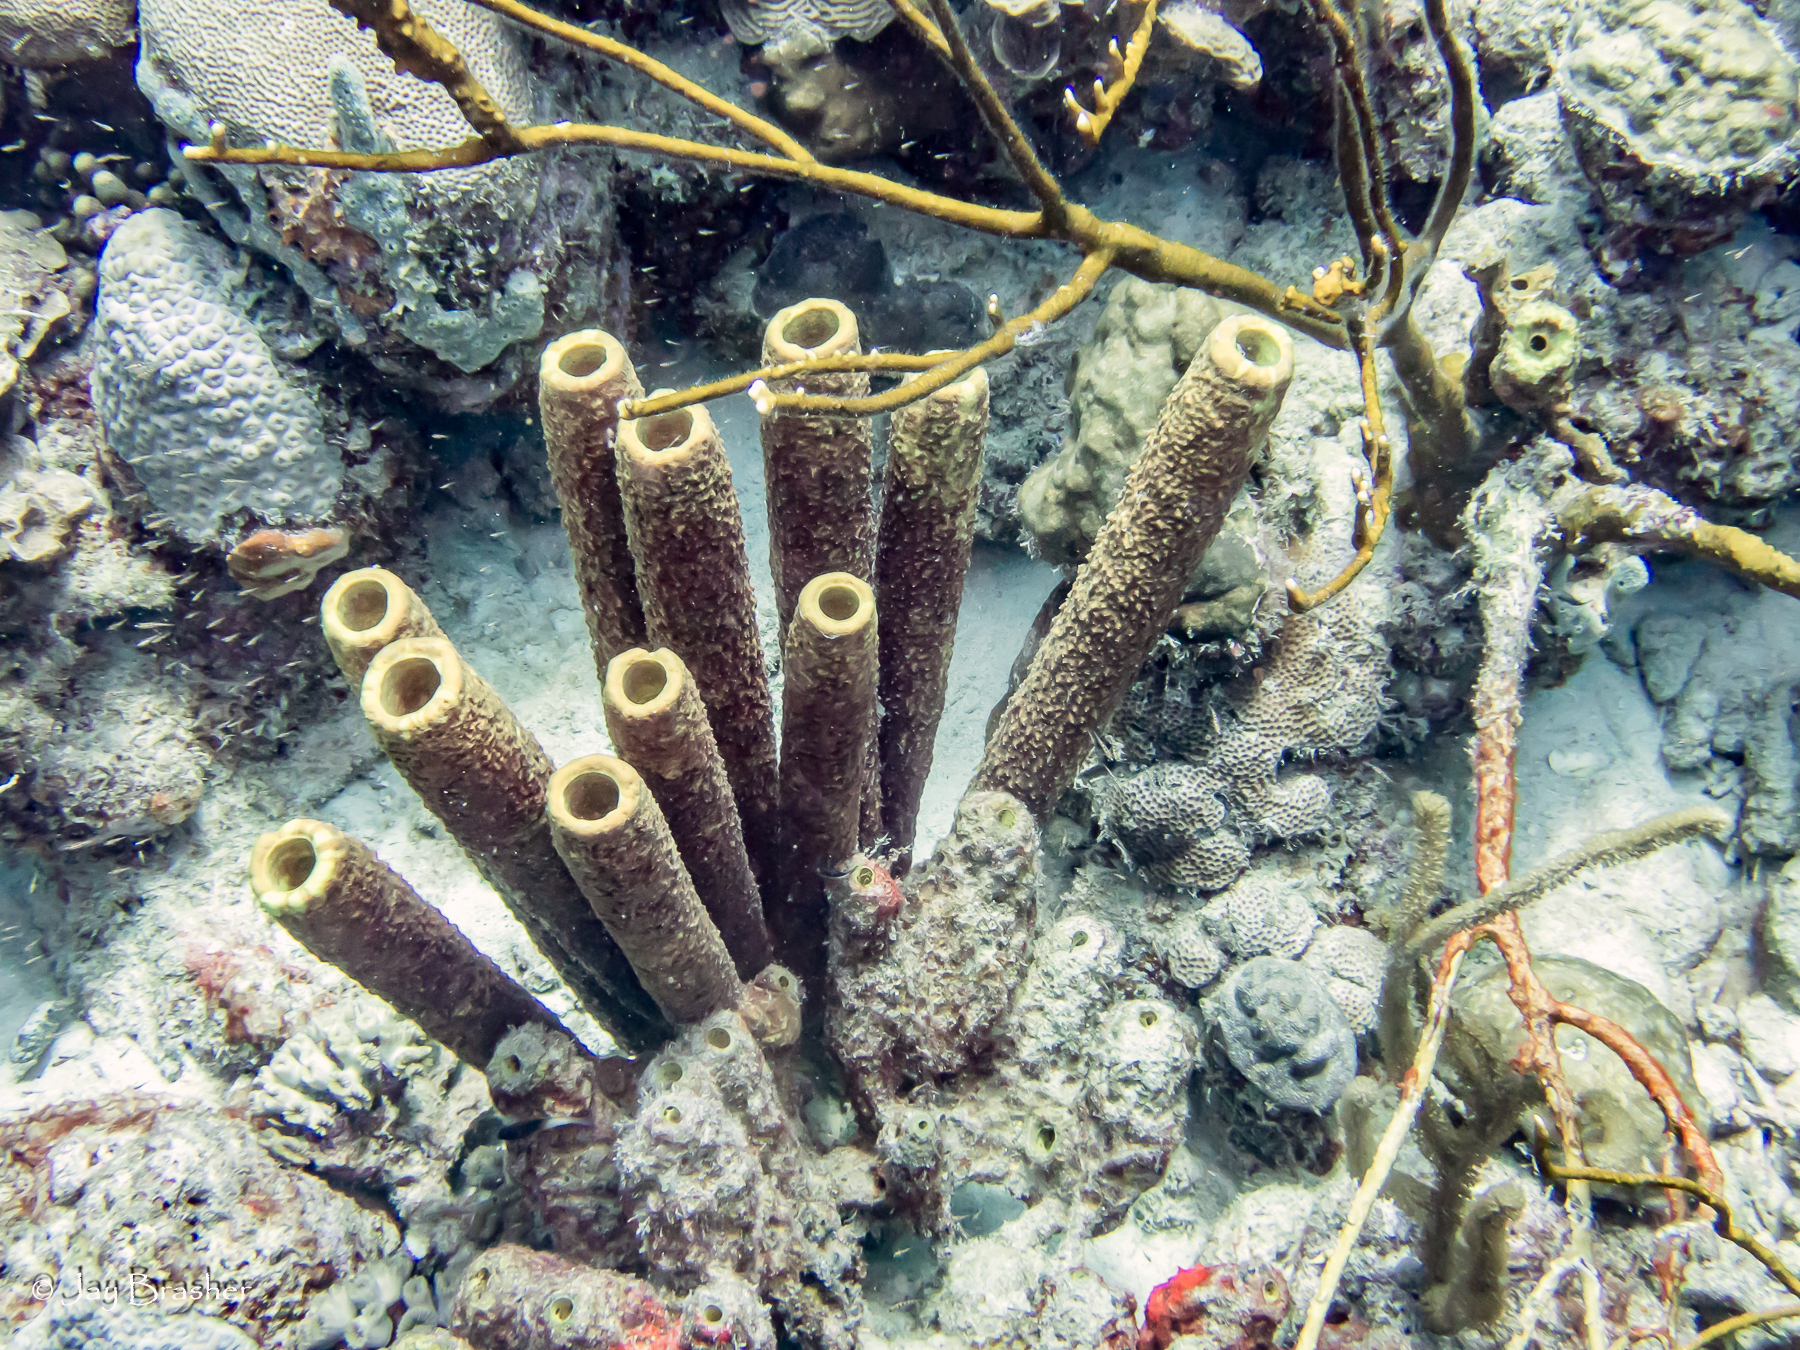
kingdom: Animalia
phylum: Porifera
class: Demospongiae
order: Verongiida
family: Aplysinidae
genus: Aplysina
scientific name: Aplysina archeri
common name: Stove-pipe sponge
